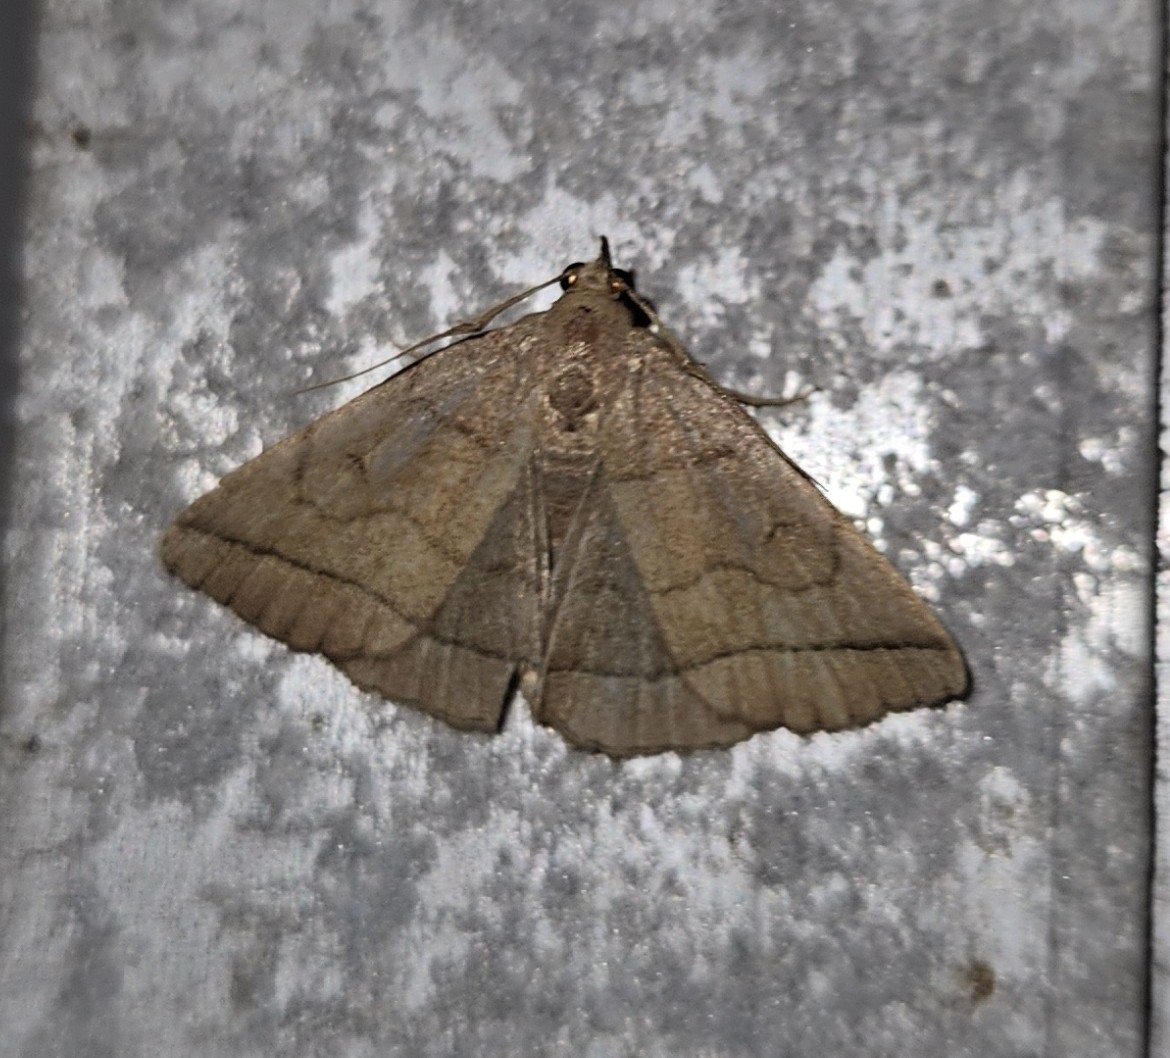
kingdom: Animalia
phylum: Arthropoda
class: Insecta
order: Lepidoptera
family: Erebidae
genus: Zanclognatha
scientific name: Zanclognatha cruralis
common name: Early fan-foot
